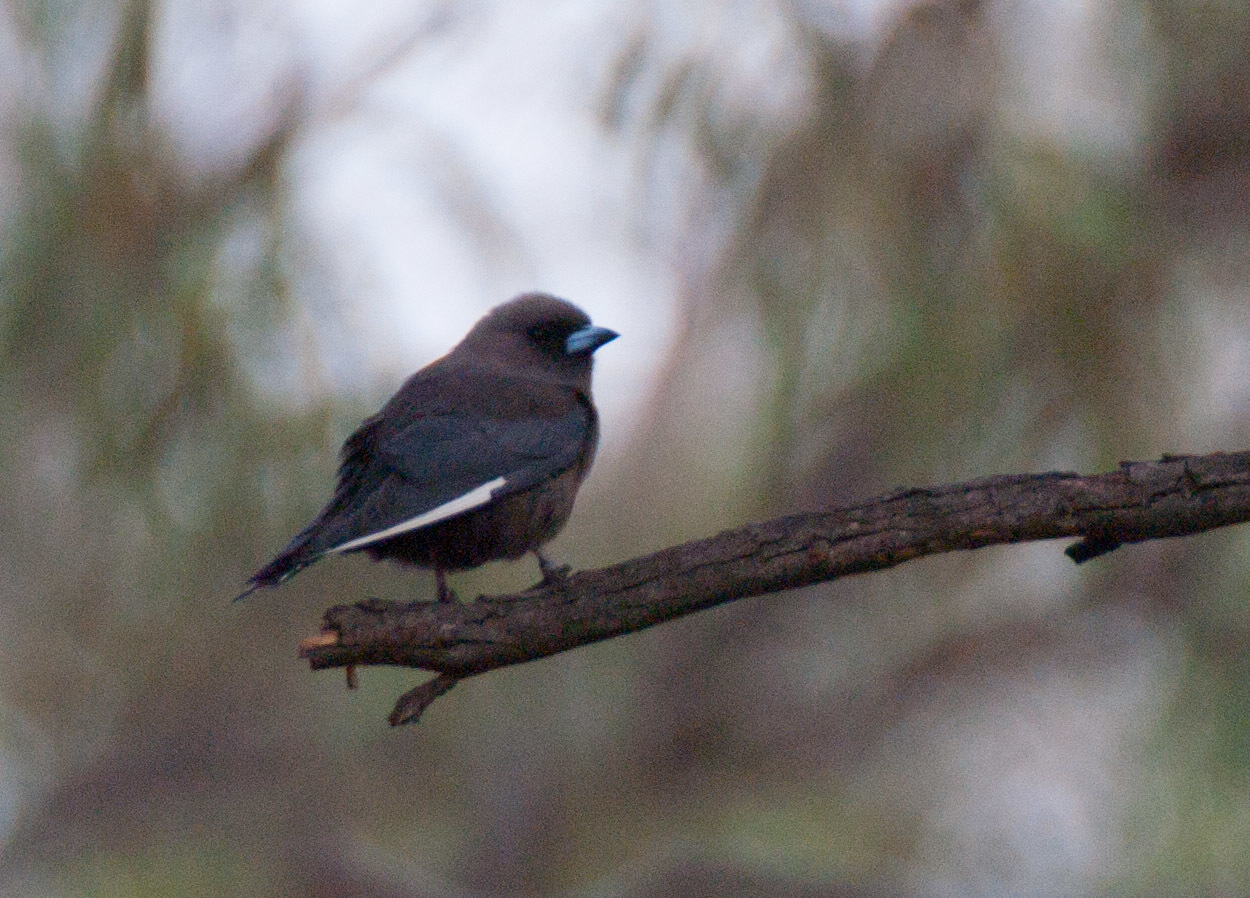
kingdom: Animalia
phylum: Chordata
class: Aves
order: Passeriformes
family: Artamidae
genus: Artamus
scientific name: Artamus cyanopterus
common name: Dusky woodswallow
